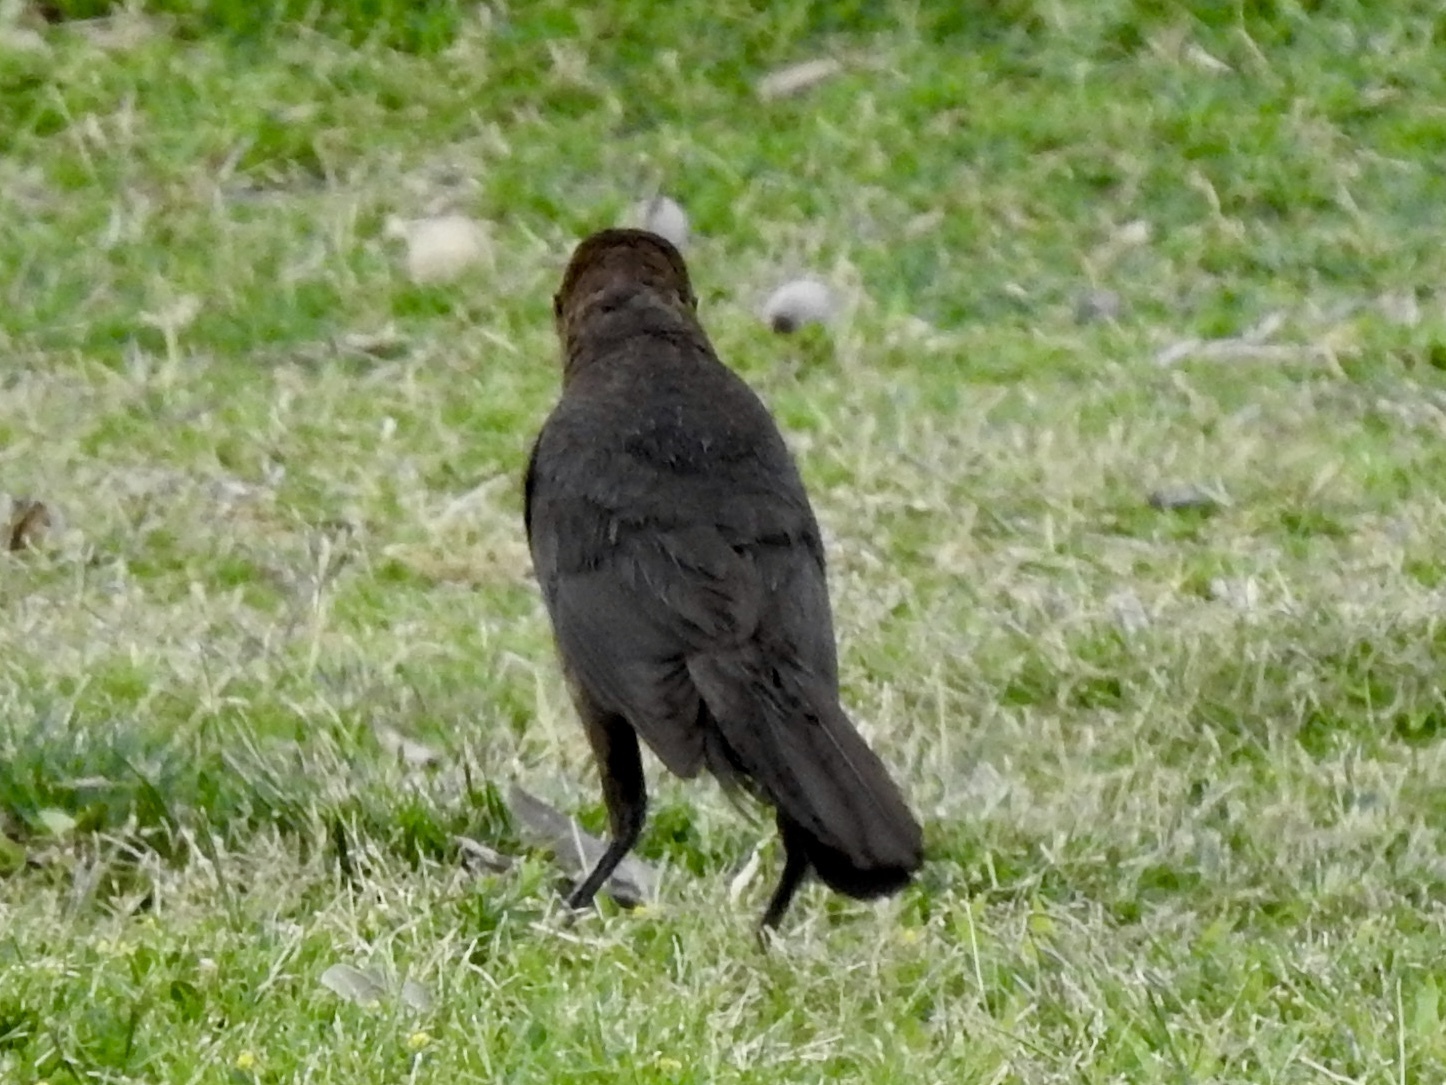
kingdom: Animalia
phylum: Chordata
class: Aves
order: Passeriformes
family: Icteridae
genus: Quiscalus
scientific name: Quiscalus mexicanus
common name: Great-tailed grackle
